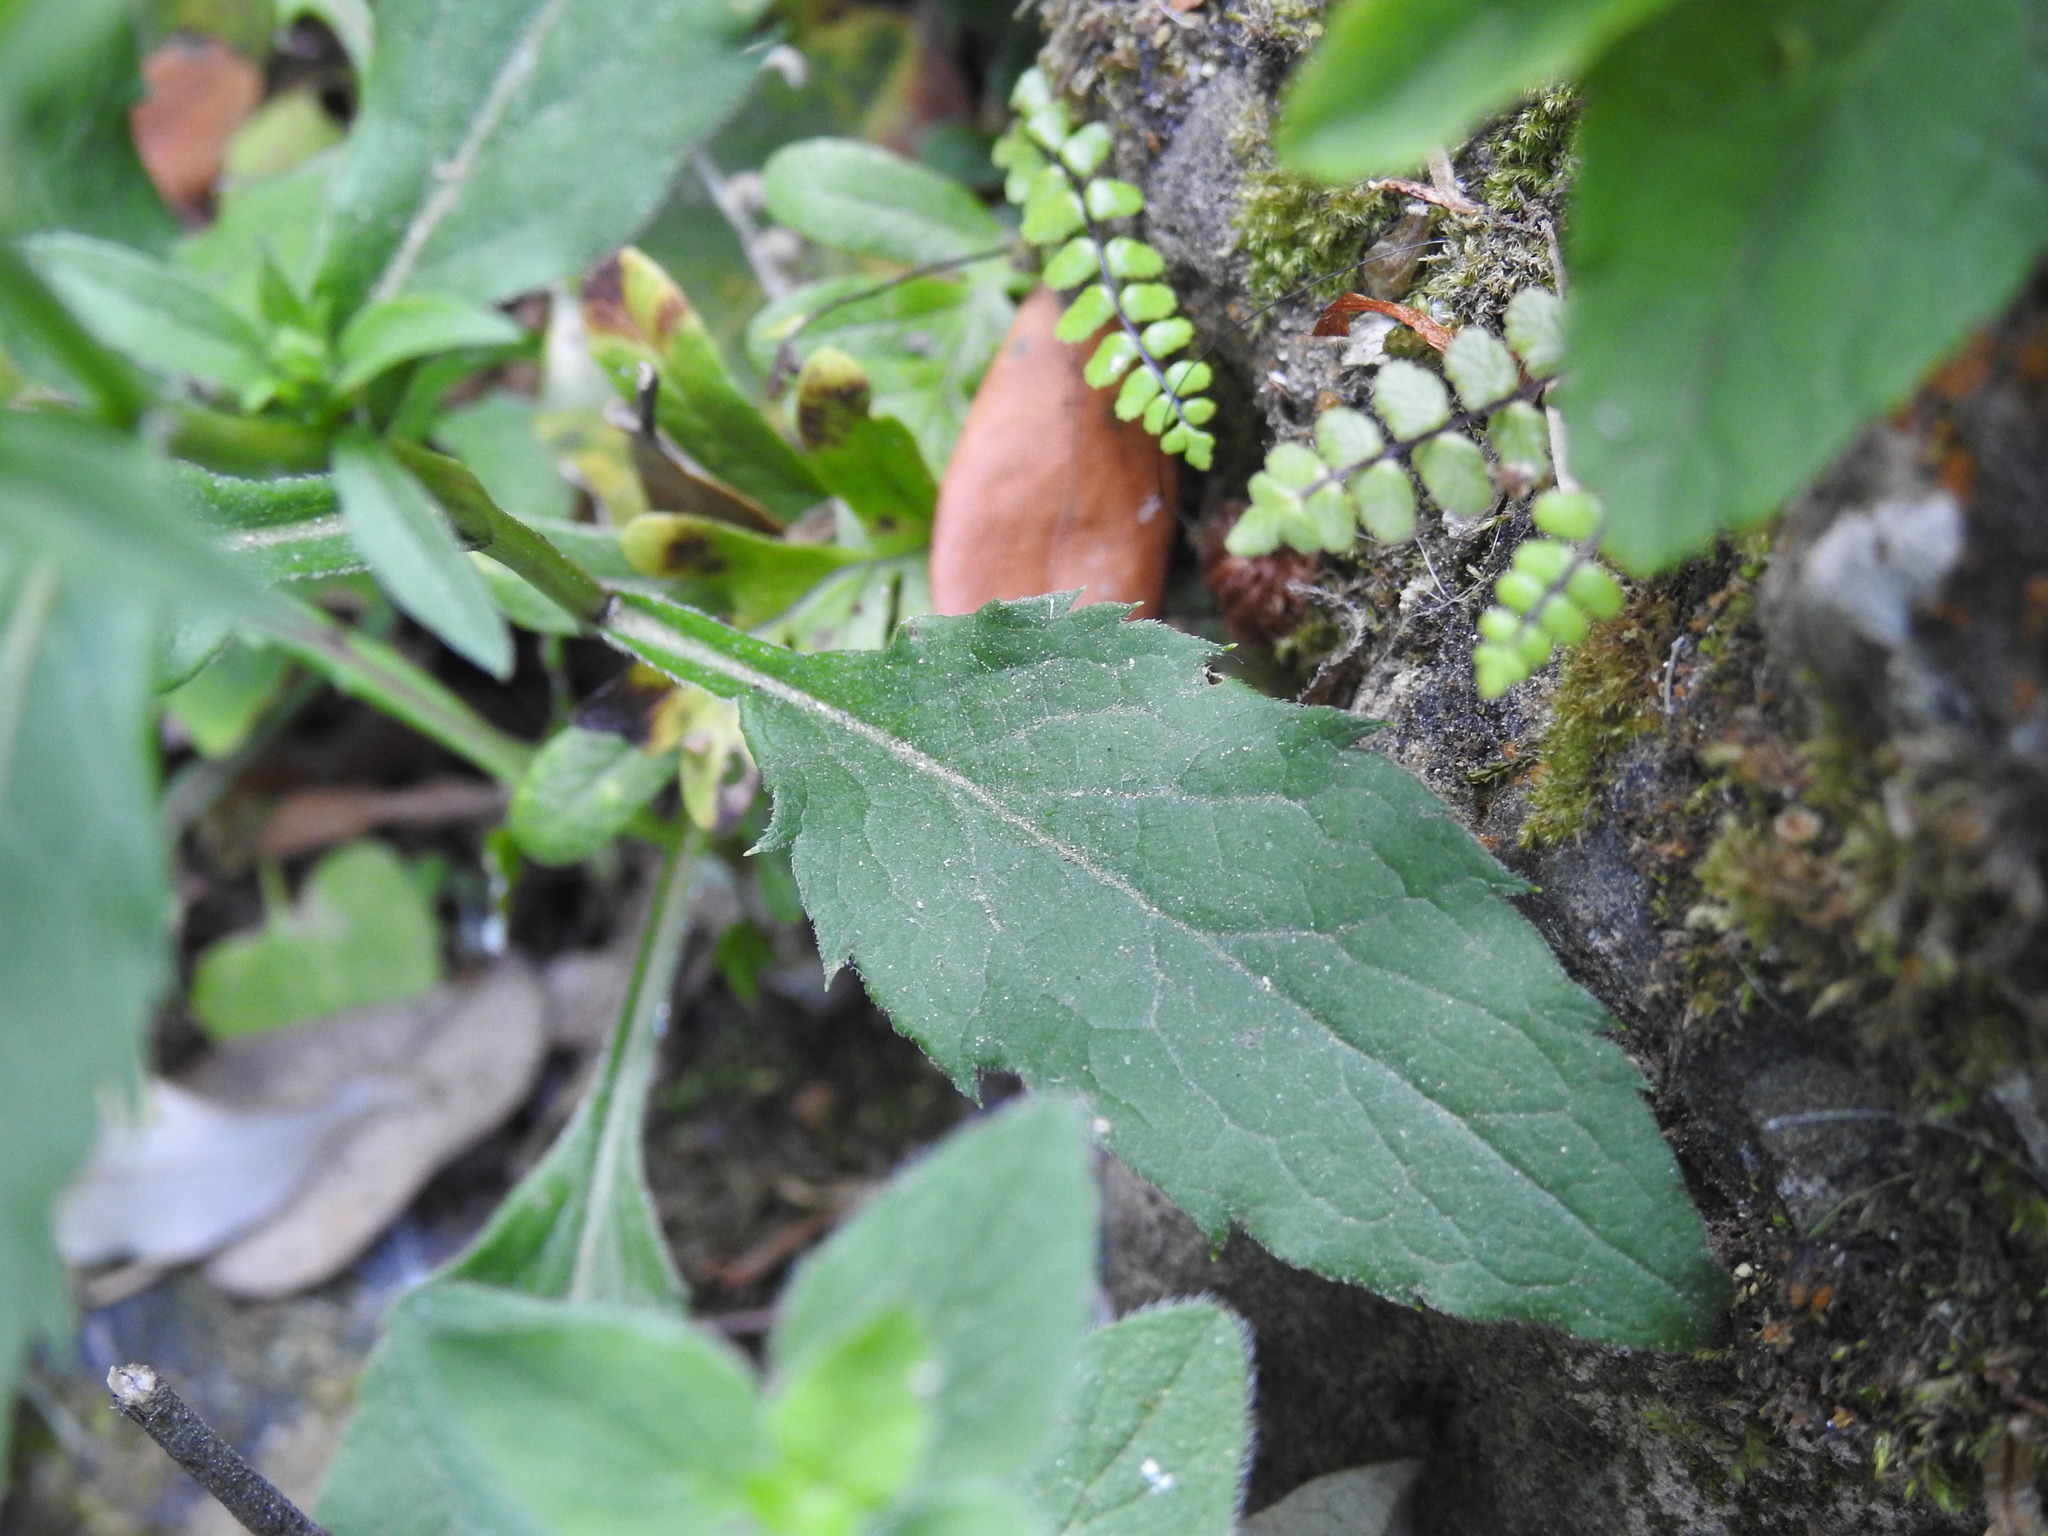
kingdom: Plantae
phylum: Tracheophyta
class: Magnoliopsida
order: Asterales
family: Asteraceae
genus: Solidago
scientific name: Solidago virgaurea
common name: Goldenrod
